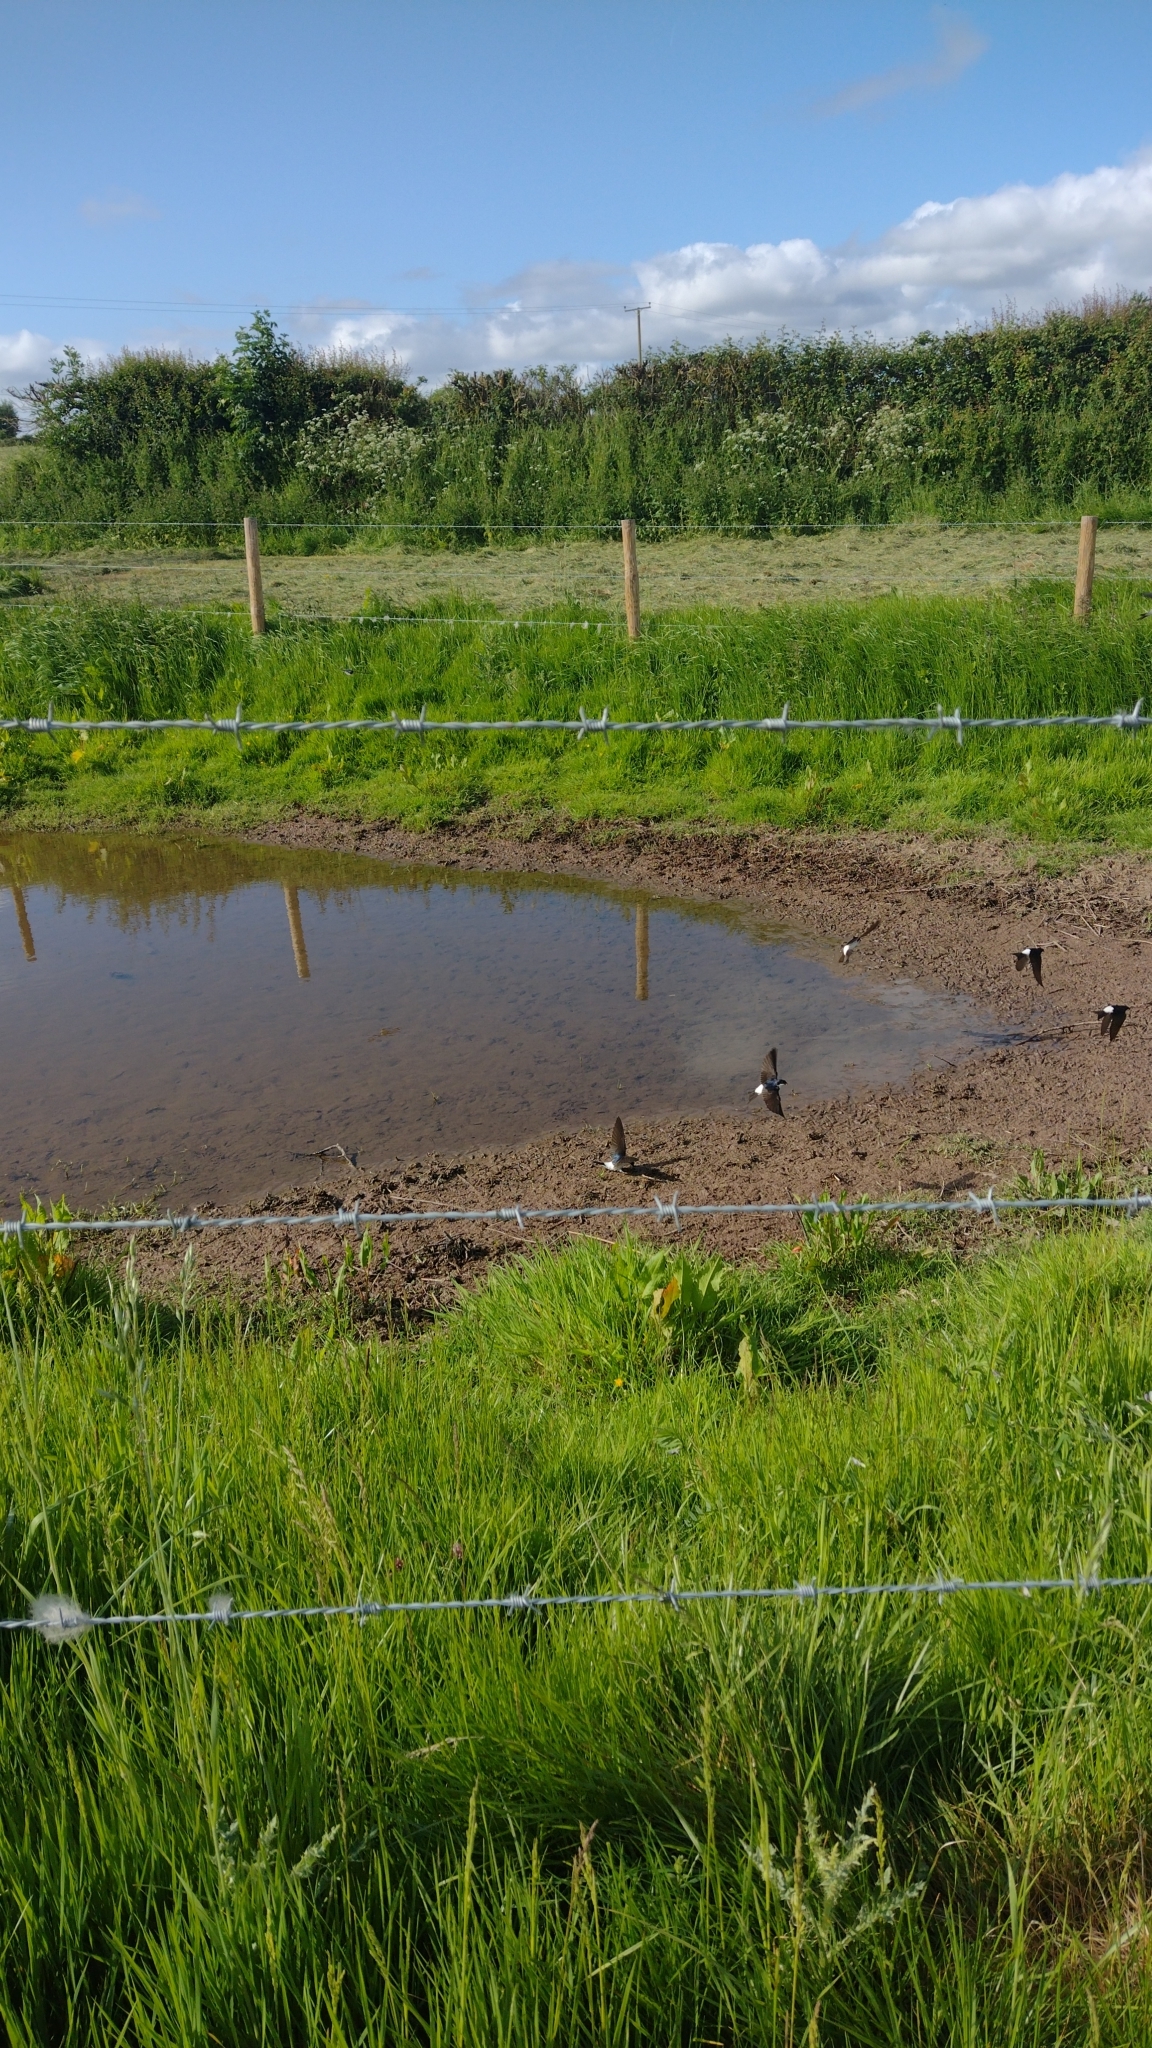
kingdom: Animalia
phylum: Chordata
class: Aves
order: Passeriformes
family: Hirundinidae
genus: Delichon
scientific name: Delichon urbicum
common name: Common house martin
